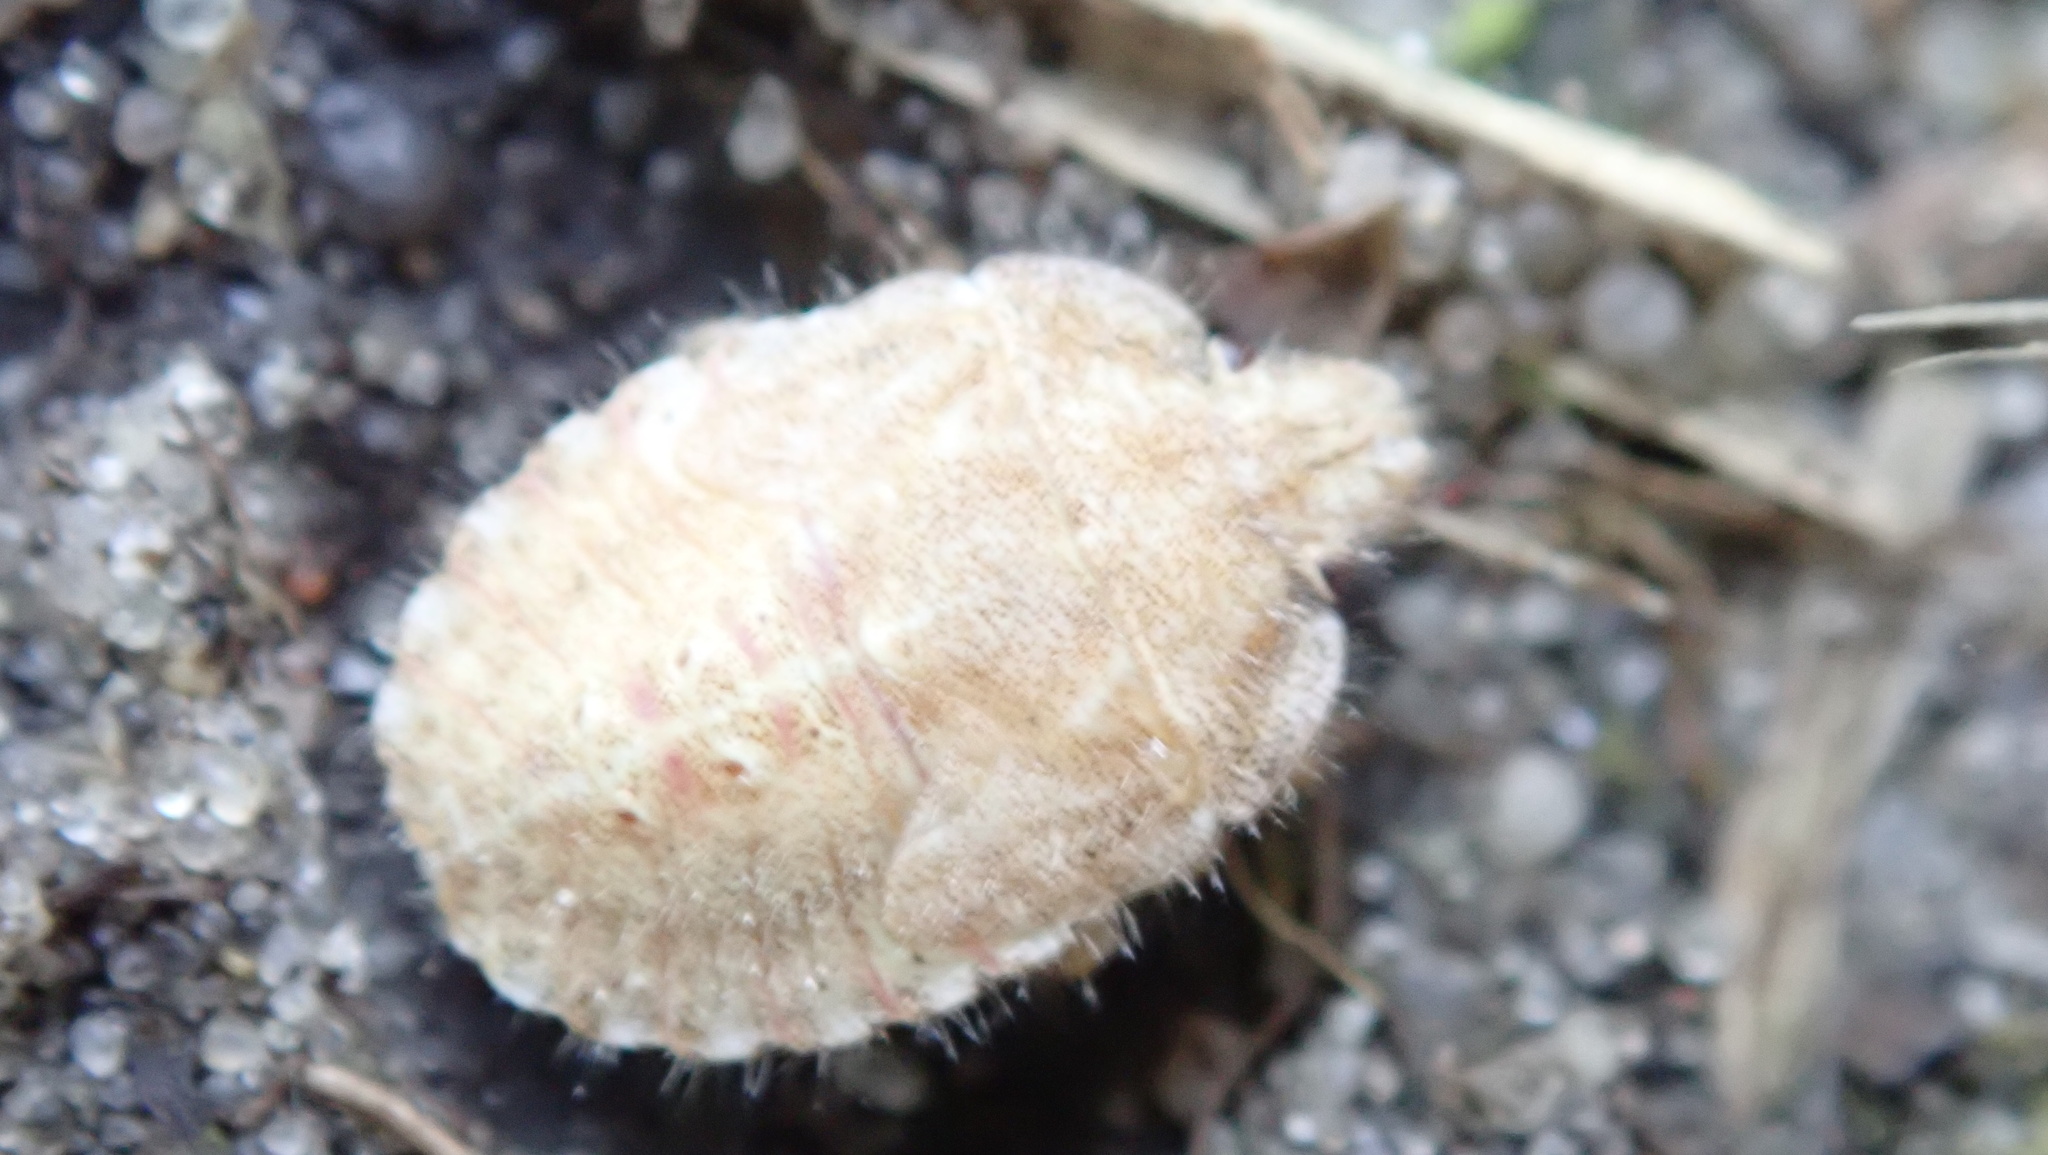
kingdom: Animalia
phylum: Arthropoda
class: Insecta
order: Hemiptera
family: Pentatomidae
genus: Dolycoris
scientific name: Dolycoris baccarum
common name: Sloe bug
